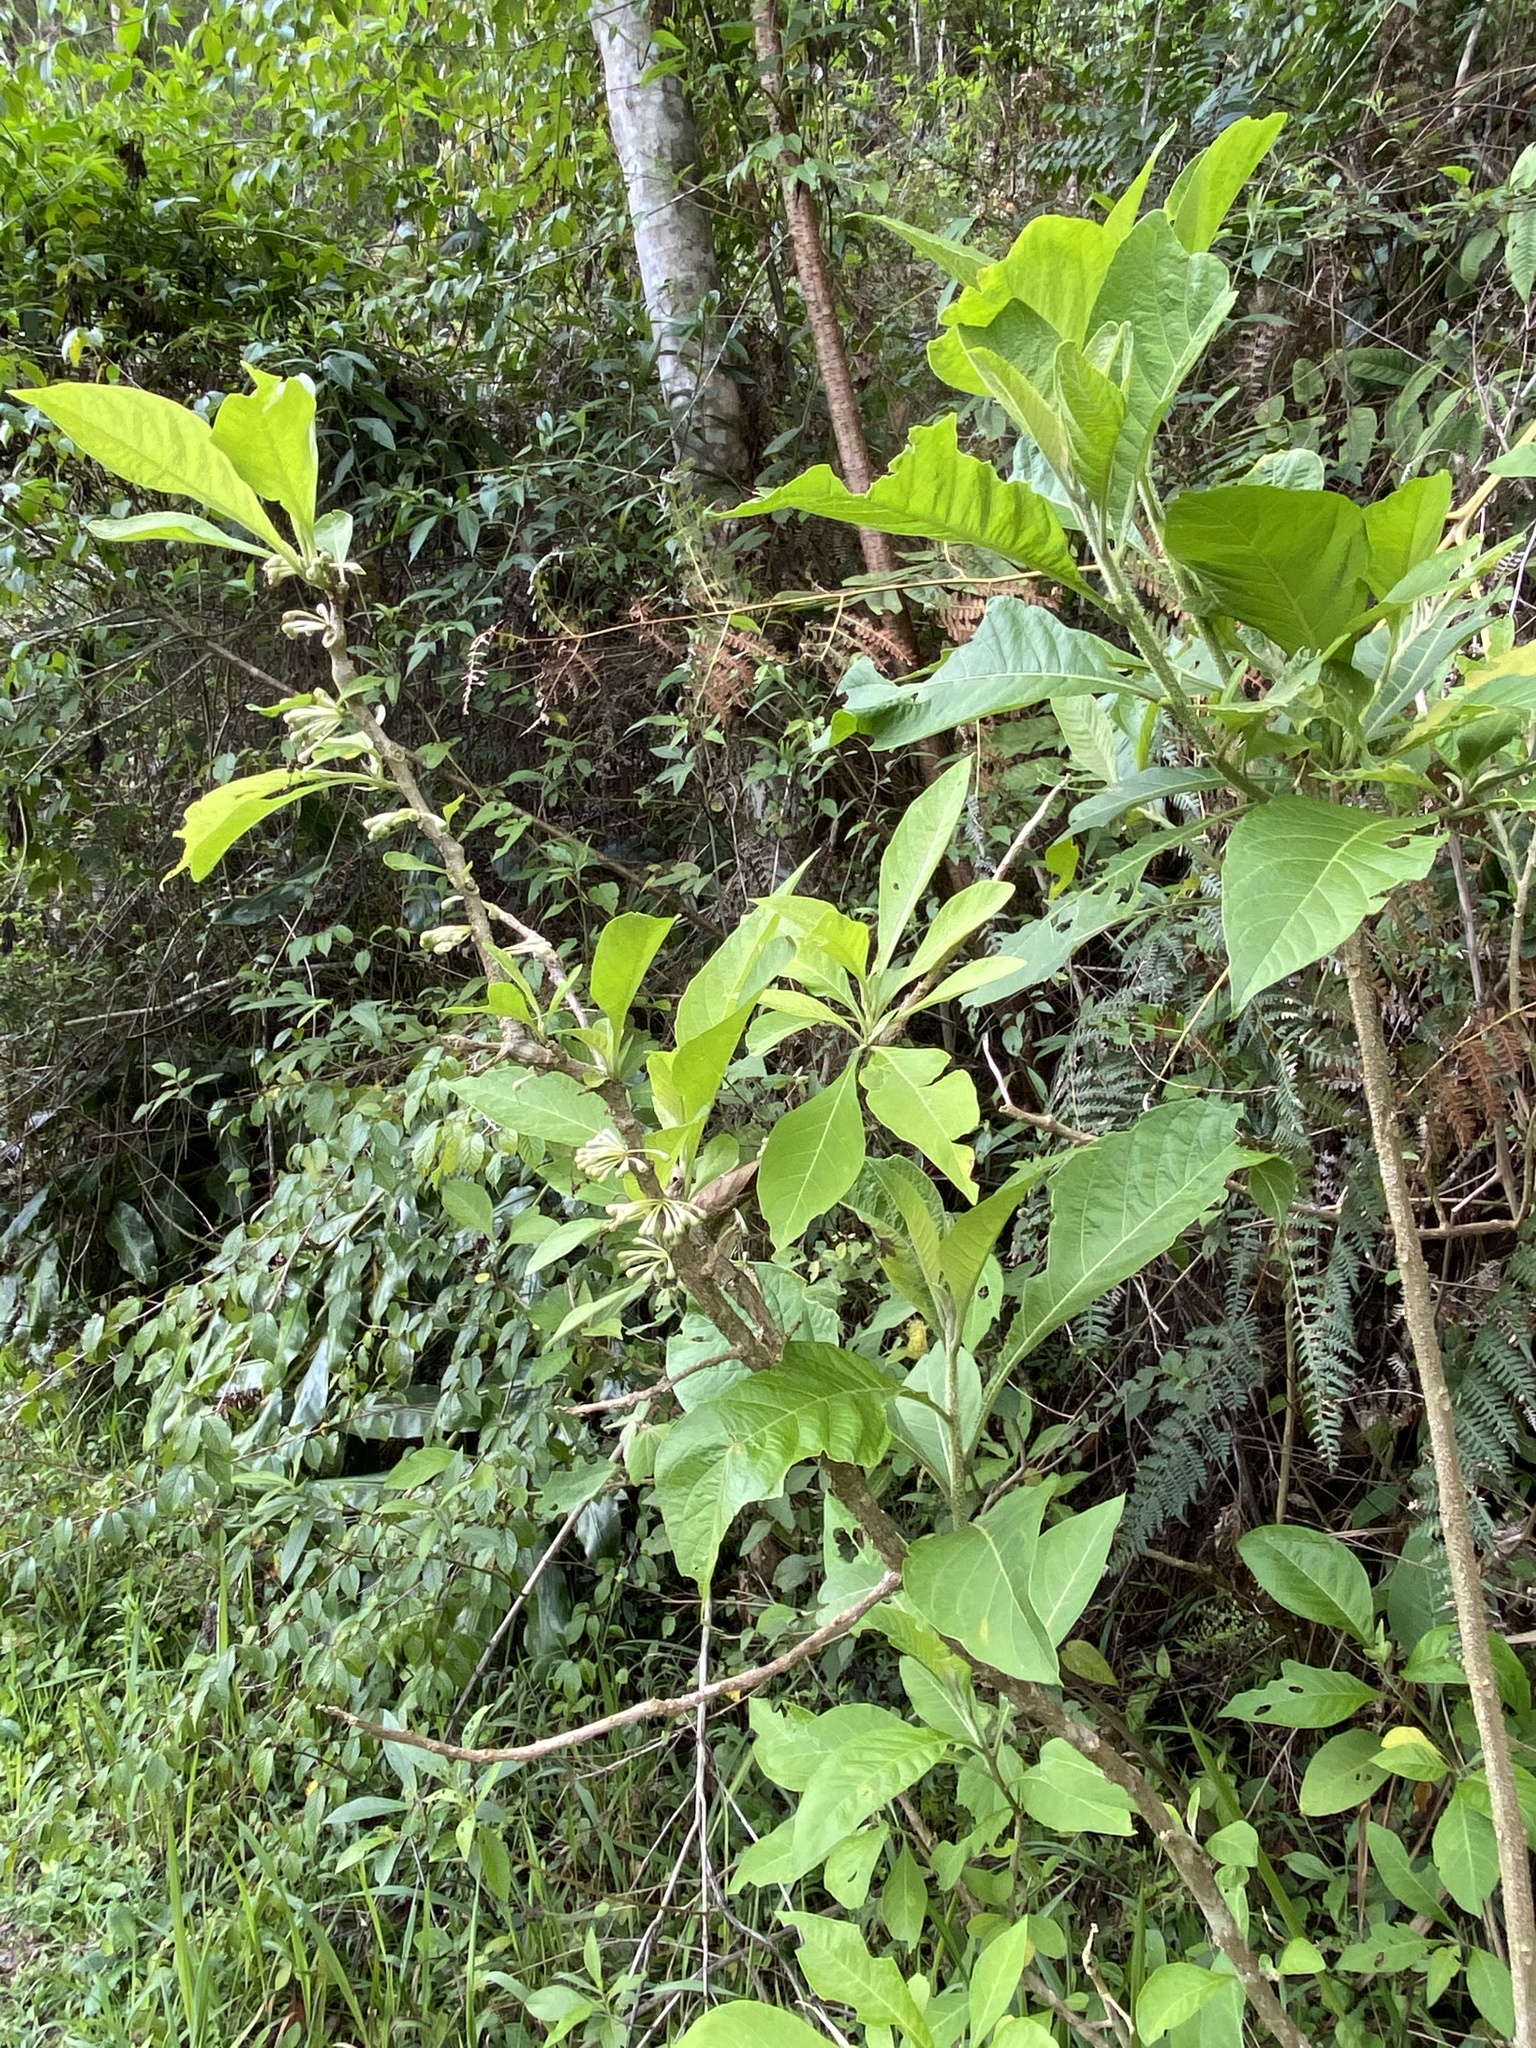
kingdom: Plantae
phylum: Tracheophyta
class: Magnoliopsida
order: Solanales
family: Solanaceae
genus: Iochroma
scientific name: Iochroma arborescens
